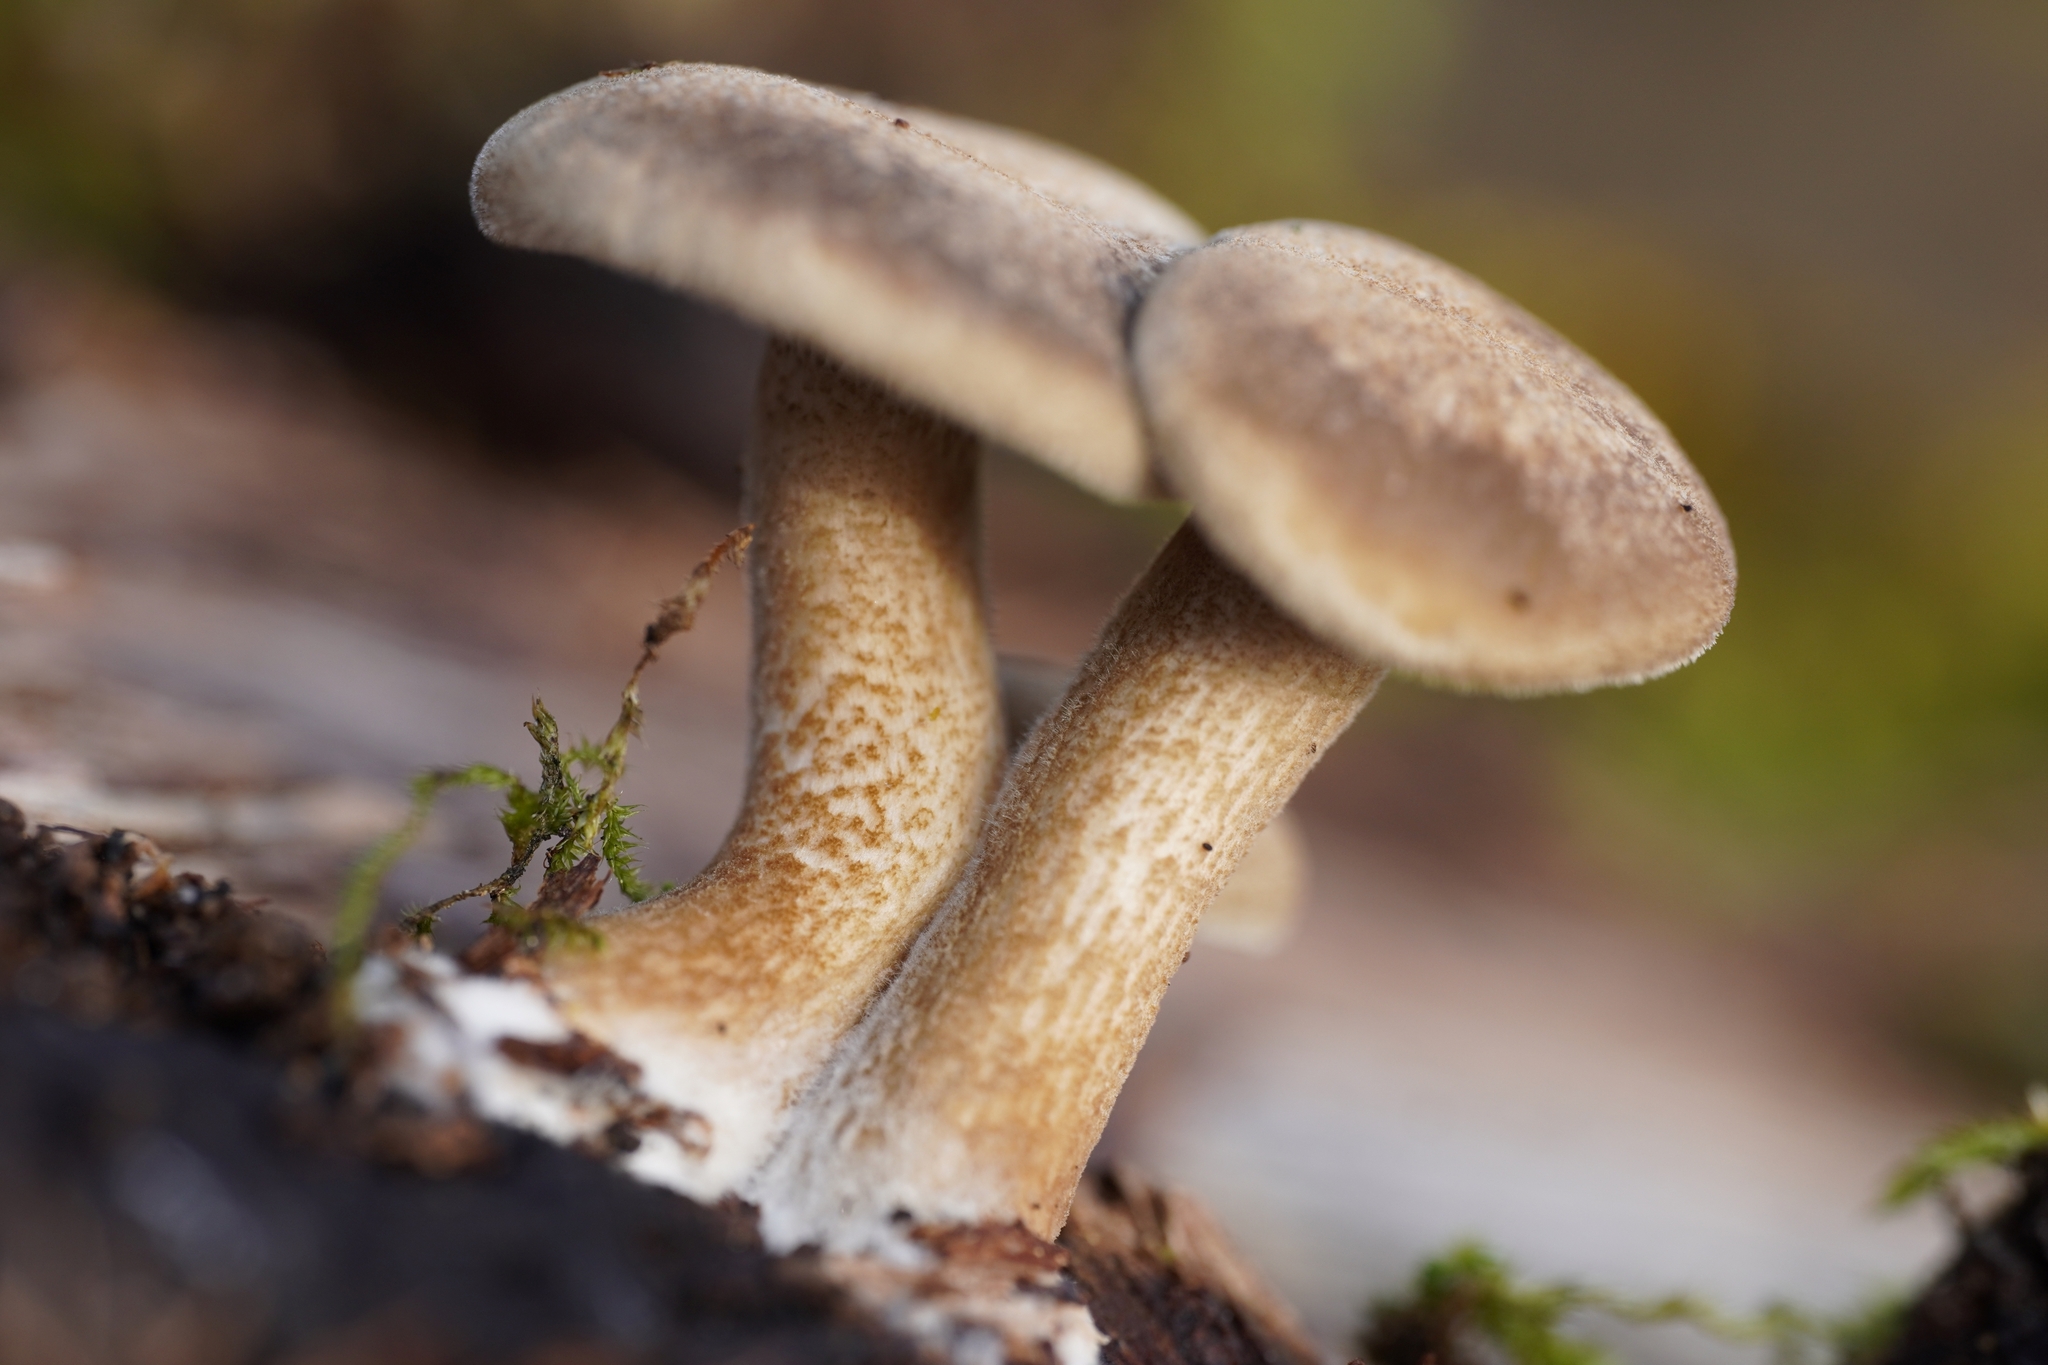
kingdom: Fungi
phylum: Basidiomycota
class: Agaricomycetes
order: Polyporales
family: Polyporaceae
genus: Lentinus
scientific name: Lentinus brumalis
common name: Winter polypore
